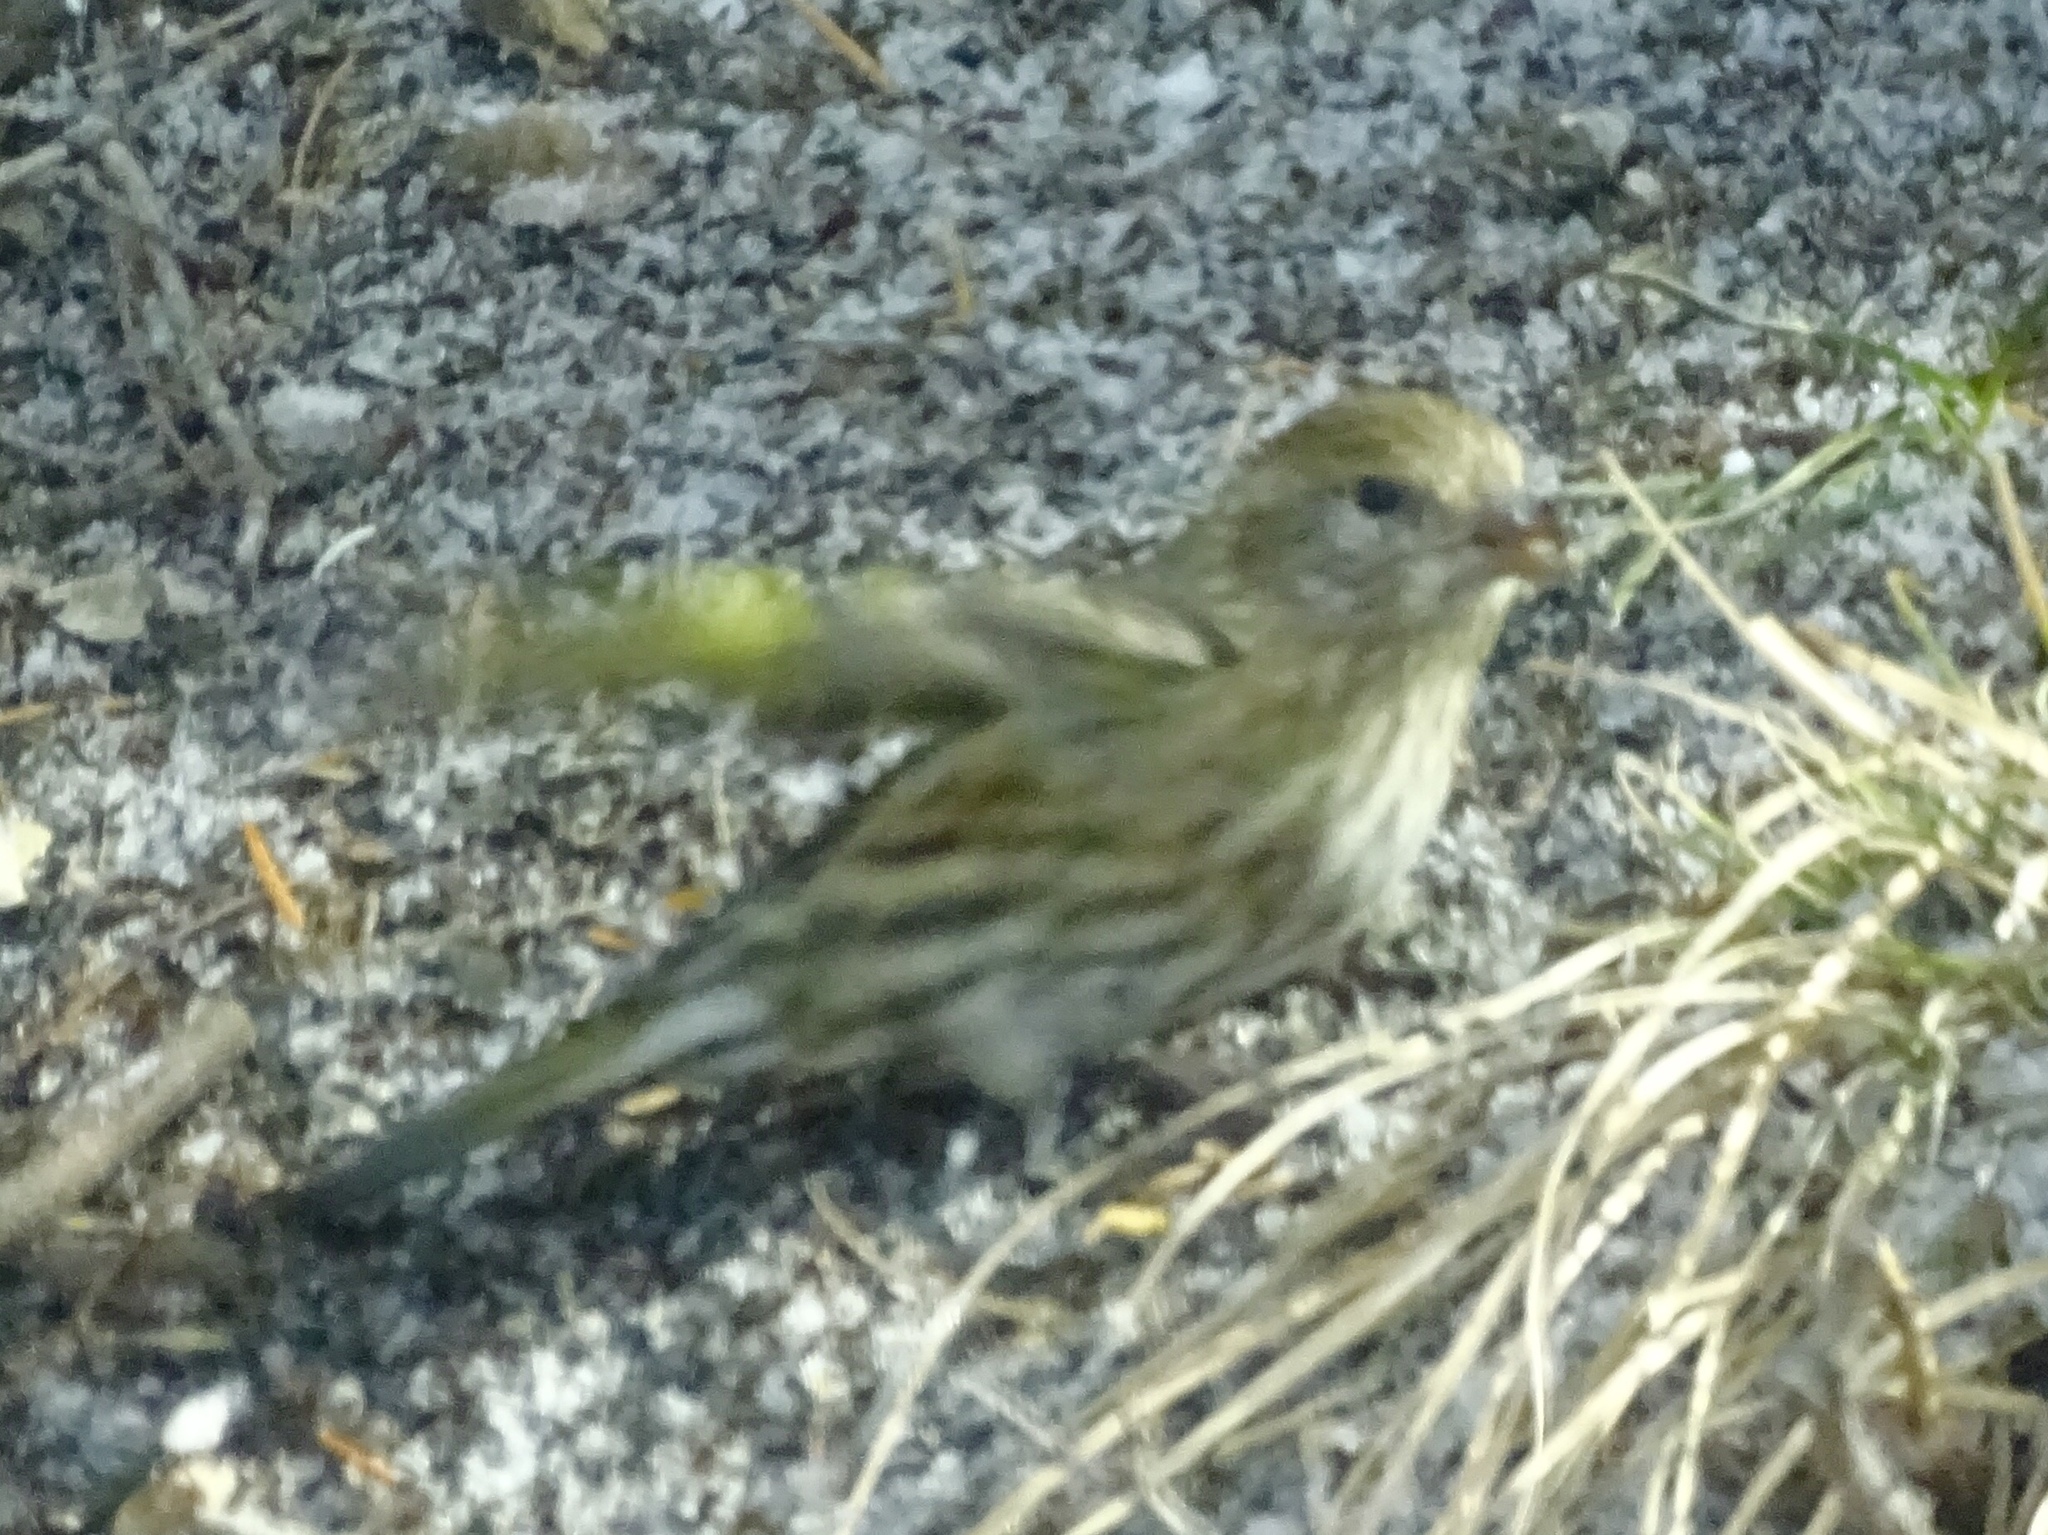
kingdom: Animalia
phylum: Chordata
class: Aves
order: Passeriformes
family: Fringillidae
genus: Spinus
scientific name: Spinus pinus
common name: Pine siskin
